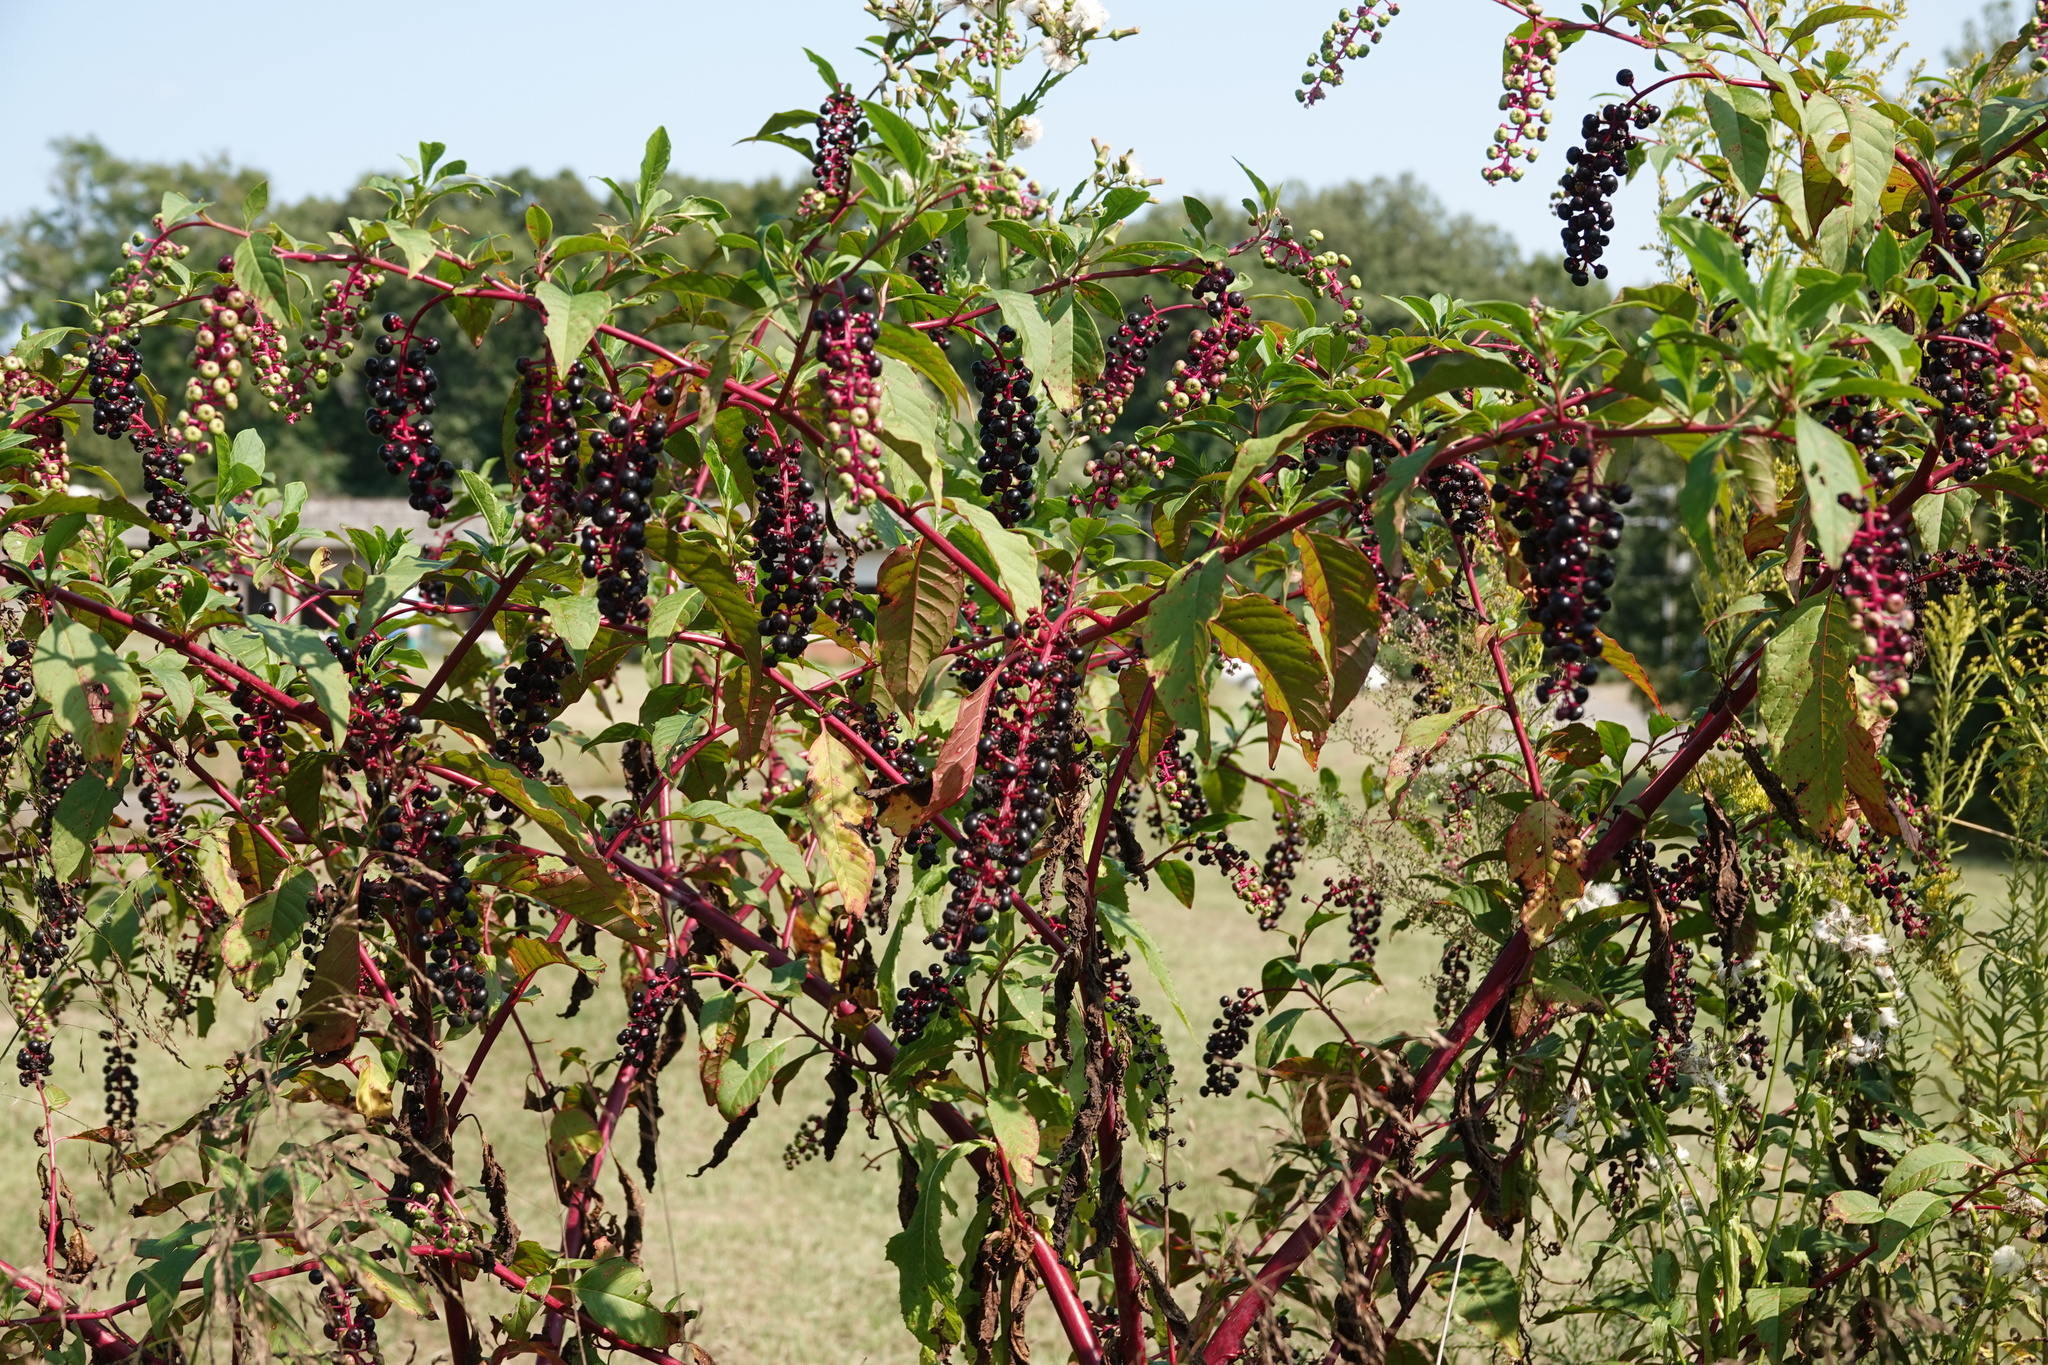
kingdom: Plantae
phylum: Tracheophyta
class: Magnoliopsida
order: Caryophyllales
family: Phytolaccaceae
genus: Phytolacca
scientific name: Phytolacca americana
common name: American pokeweed
